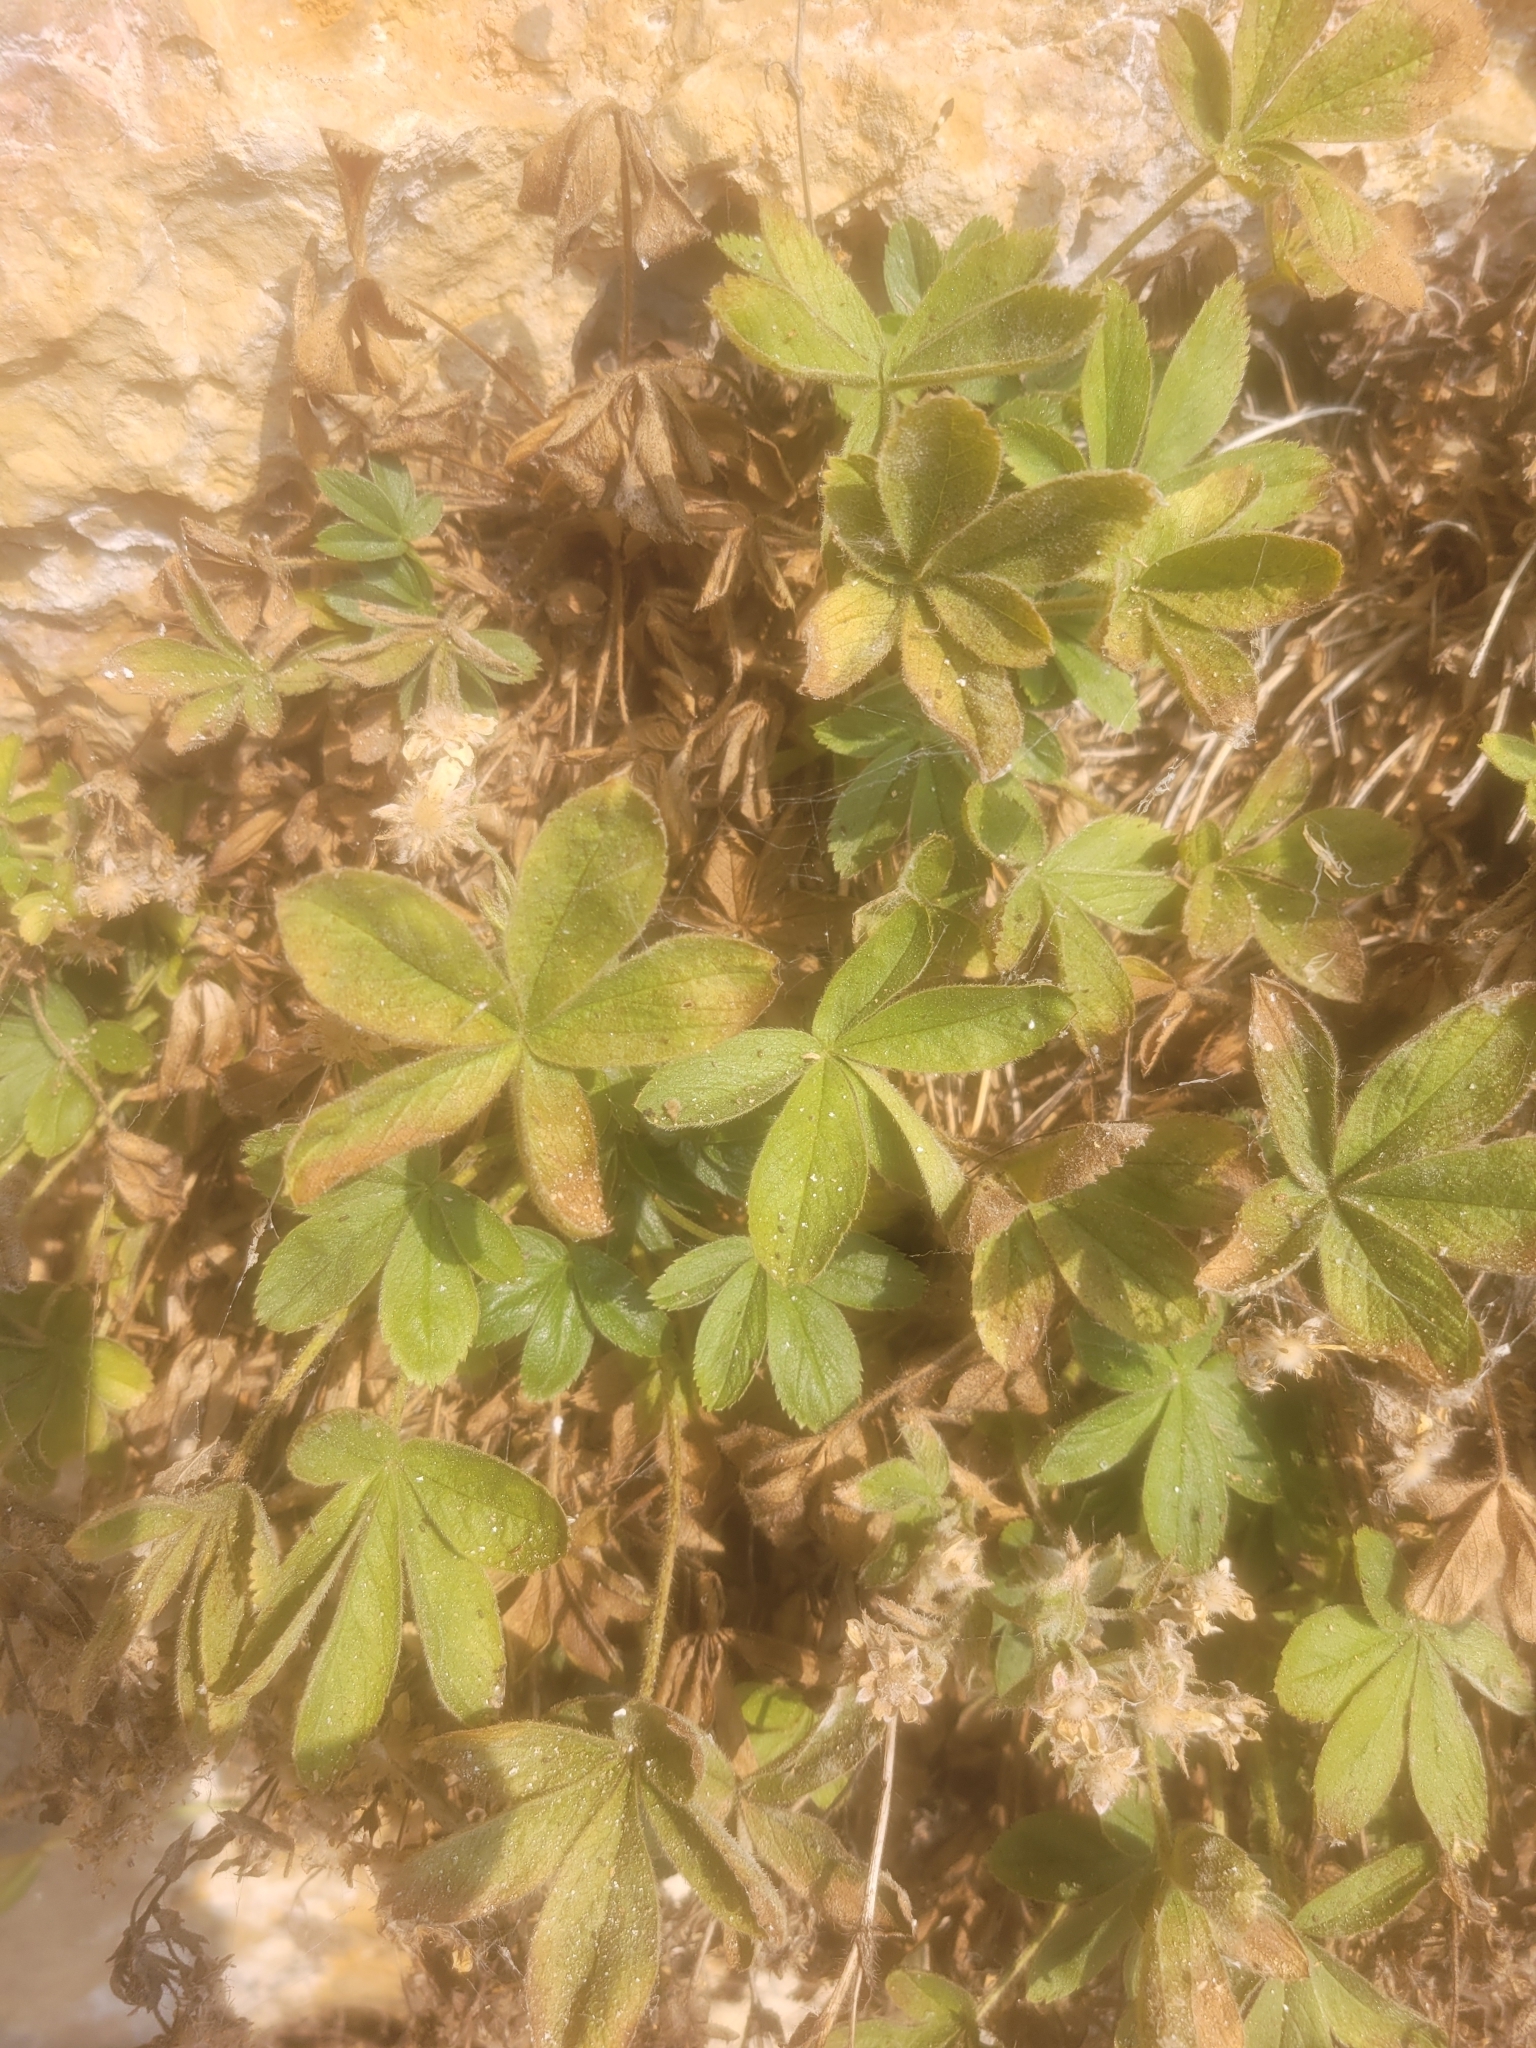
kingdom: Plantae
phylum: Tracheophyta
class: Magnoliopsida
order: Rosales
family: Rosaceae
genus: Potentilla
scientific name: Potentilla caulescens
